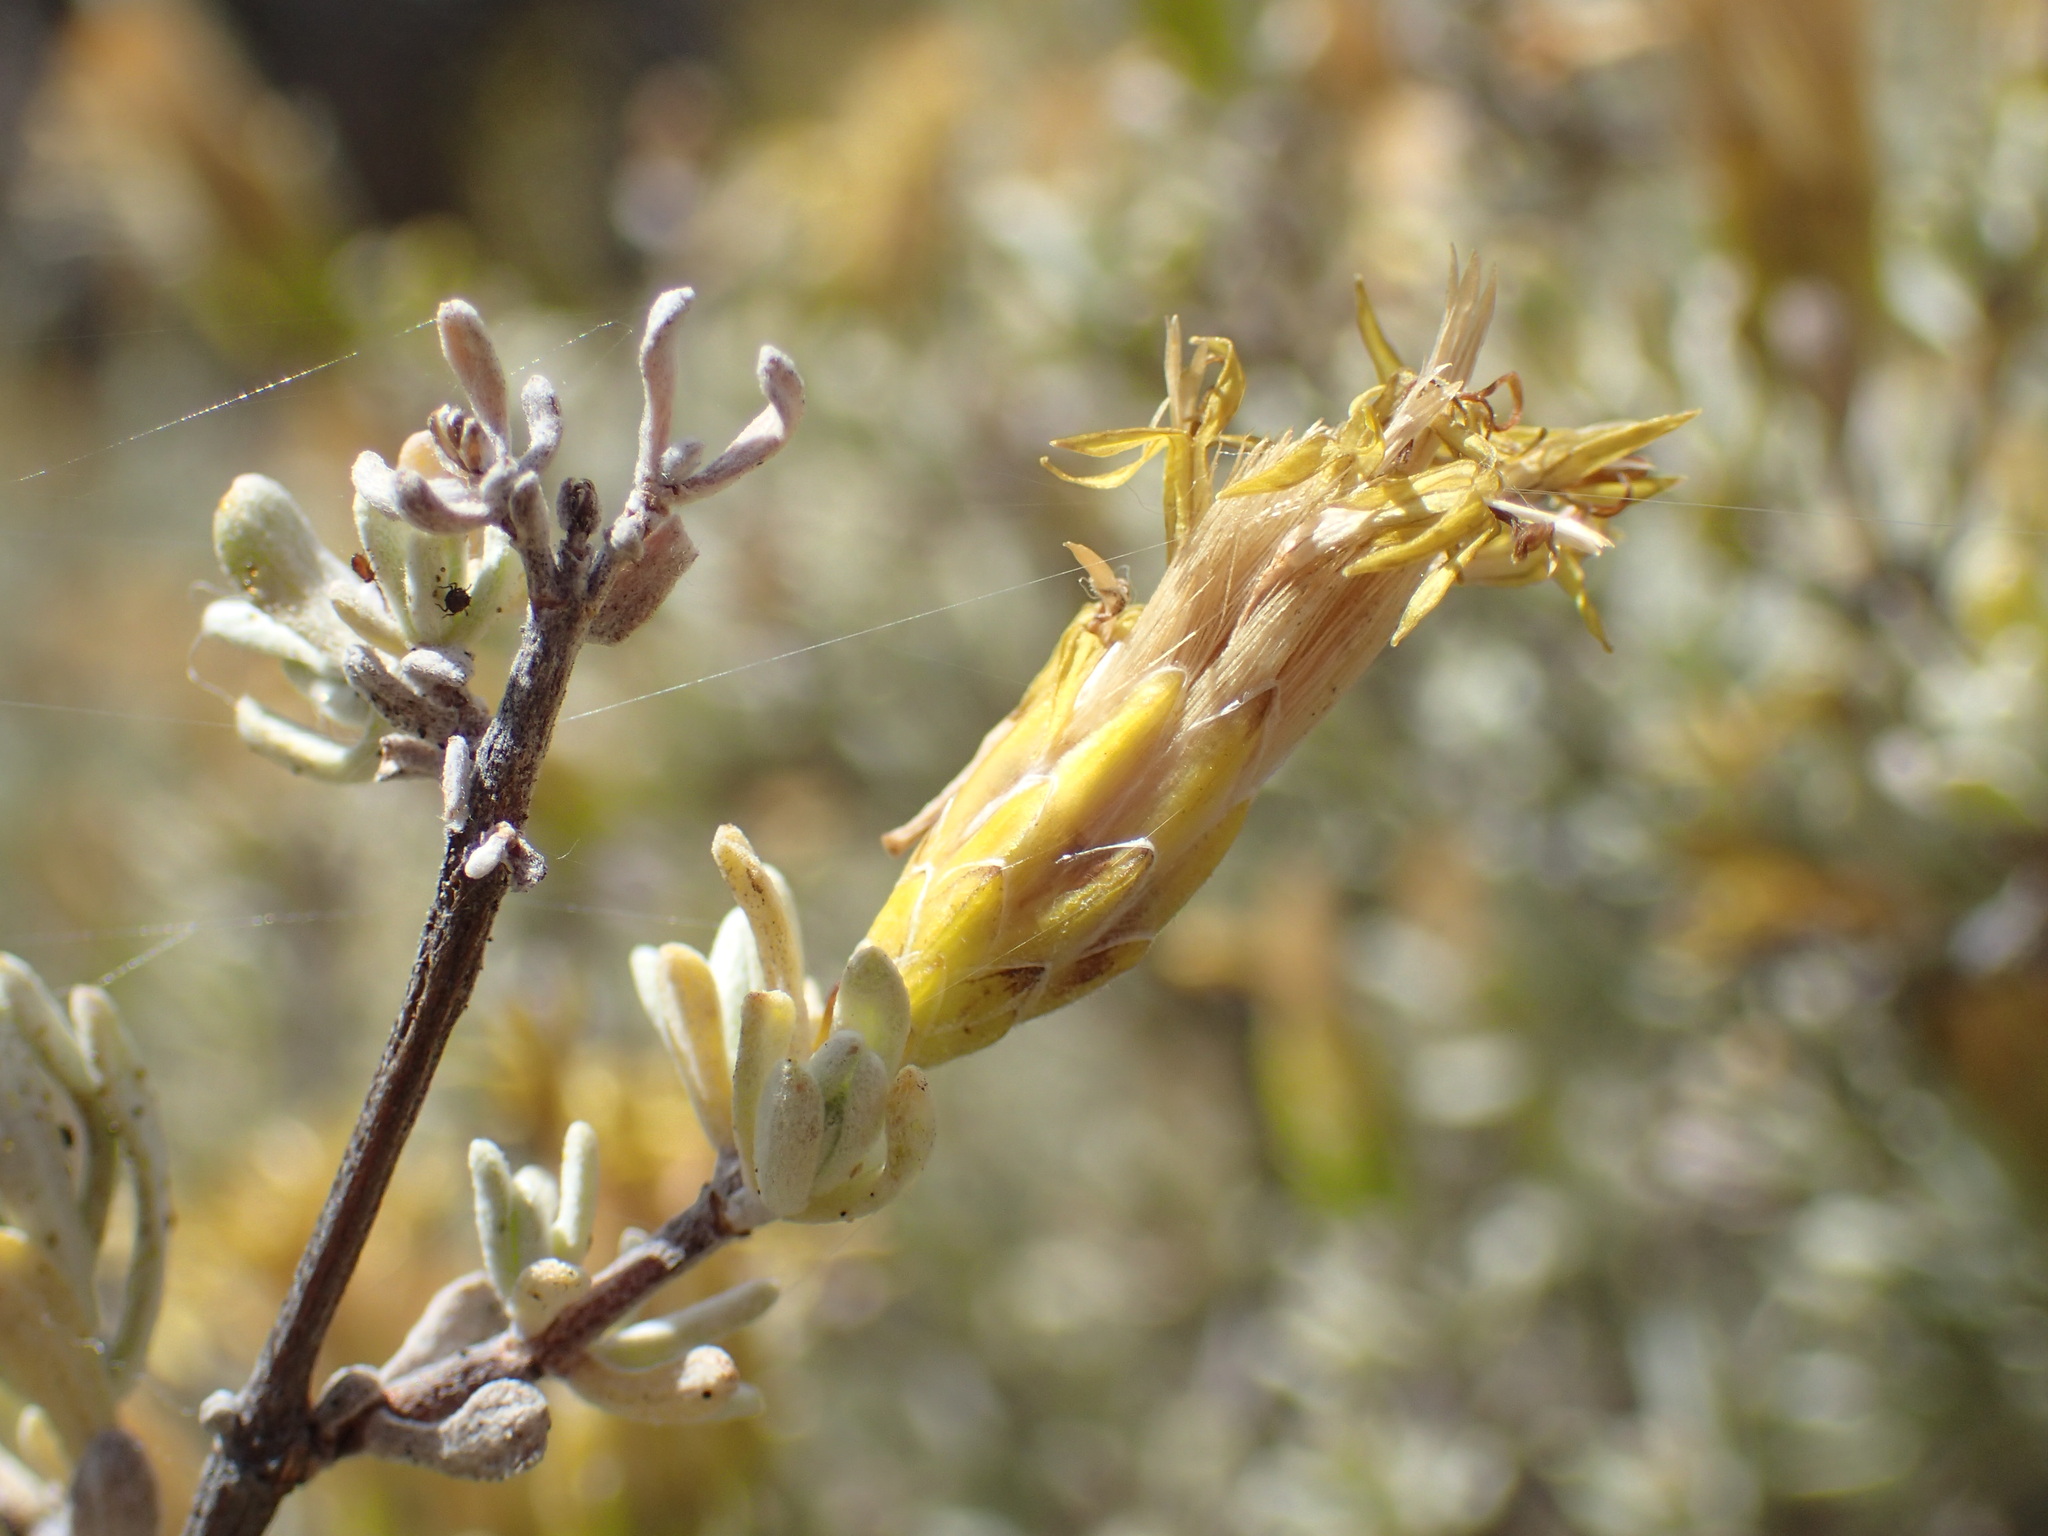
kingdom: Plantae
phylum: Tracheophyta
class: Magnoliopsida
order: Asterales
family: Asteraceae
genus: Pteronia
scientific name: Pteronia incana
